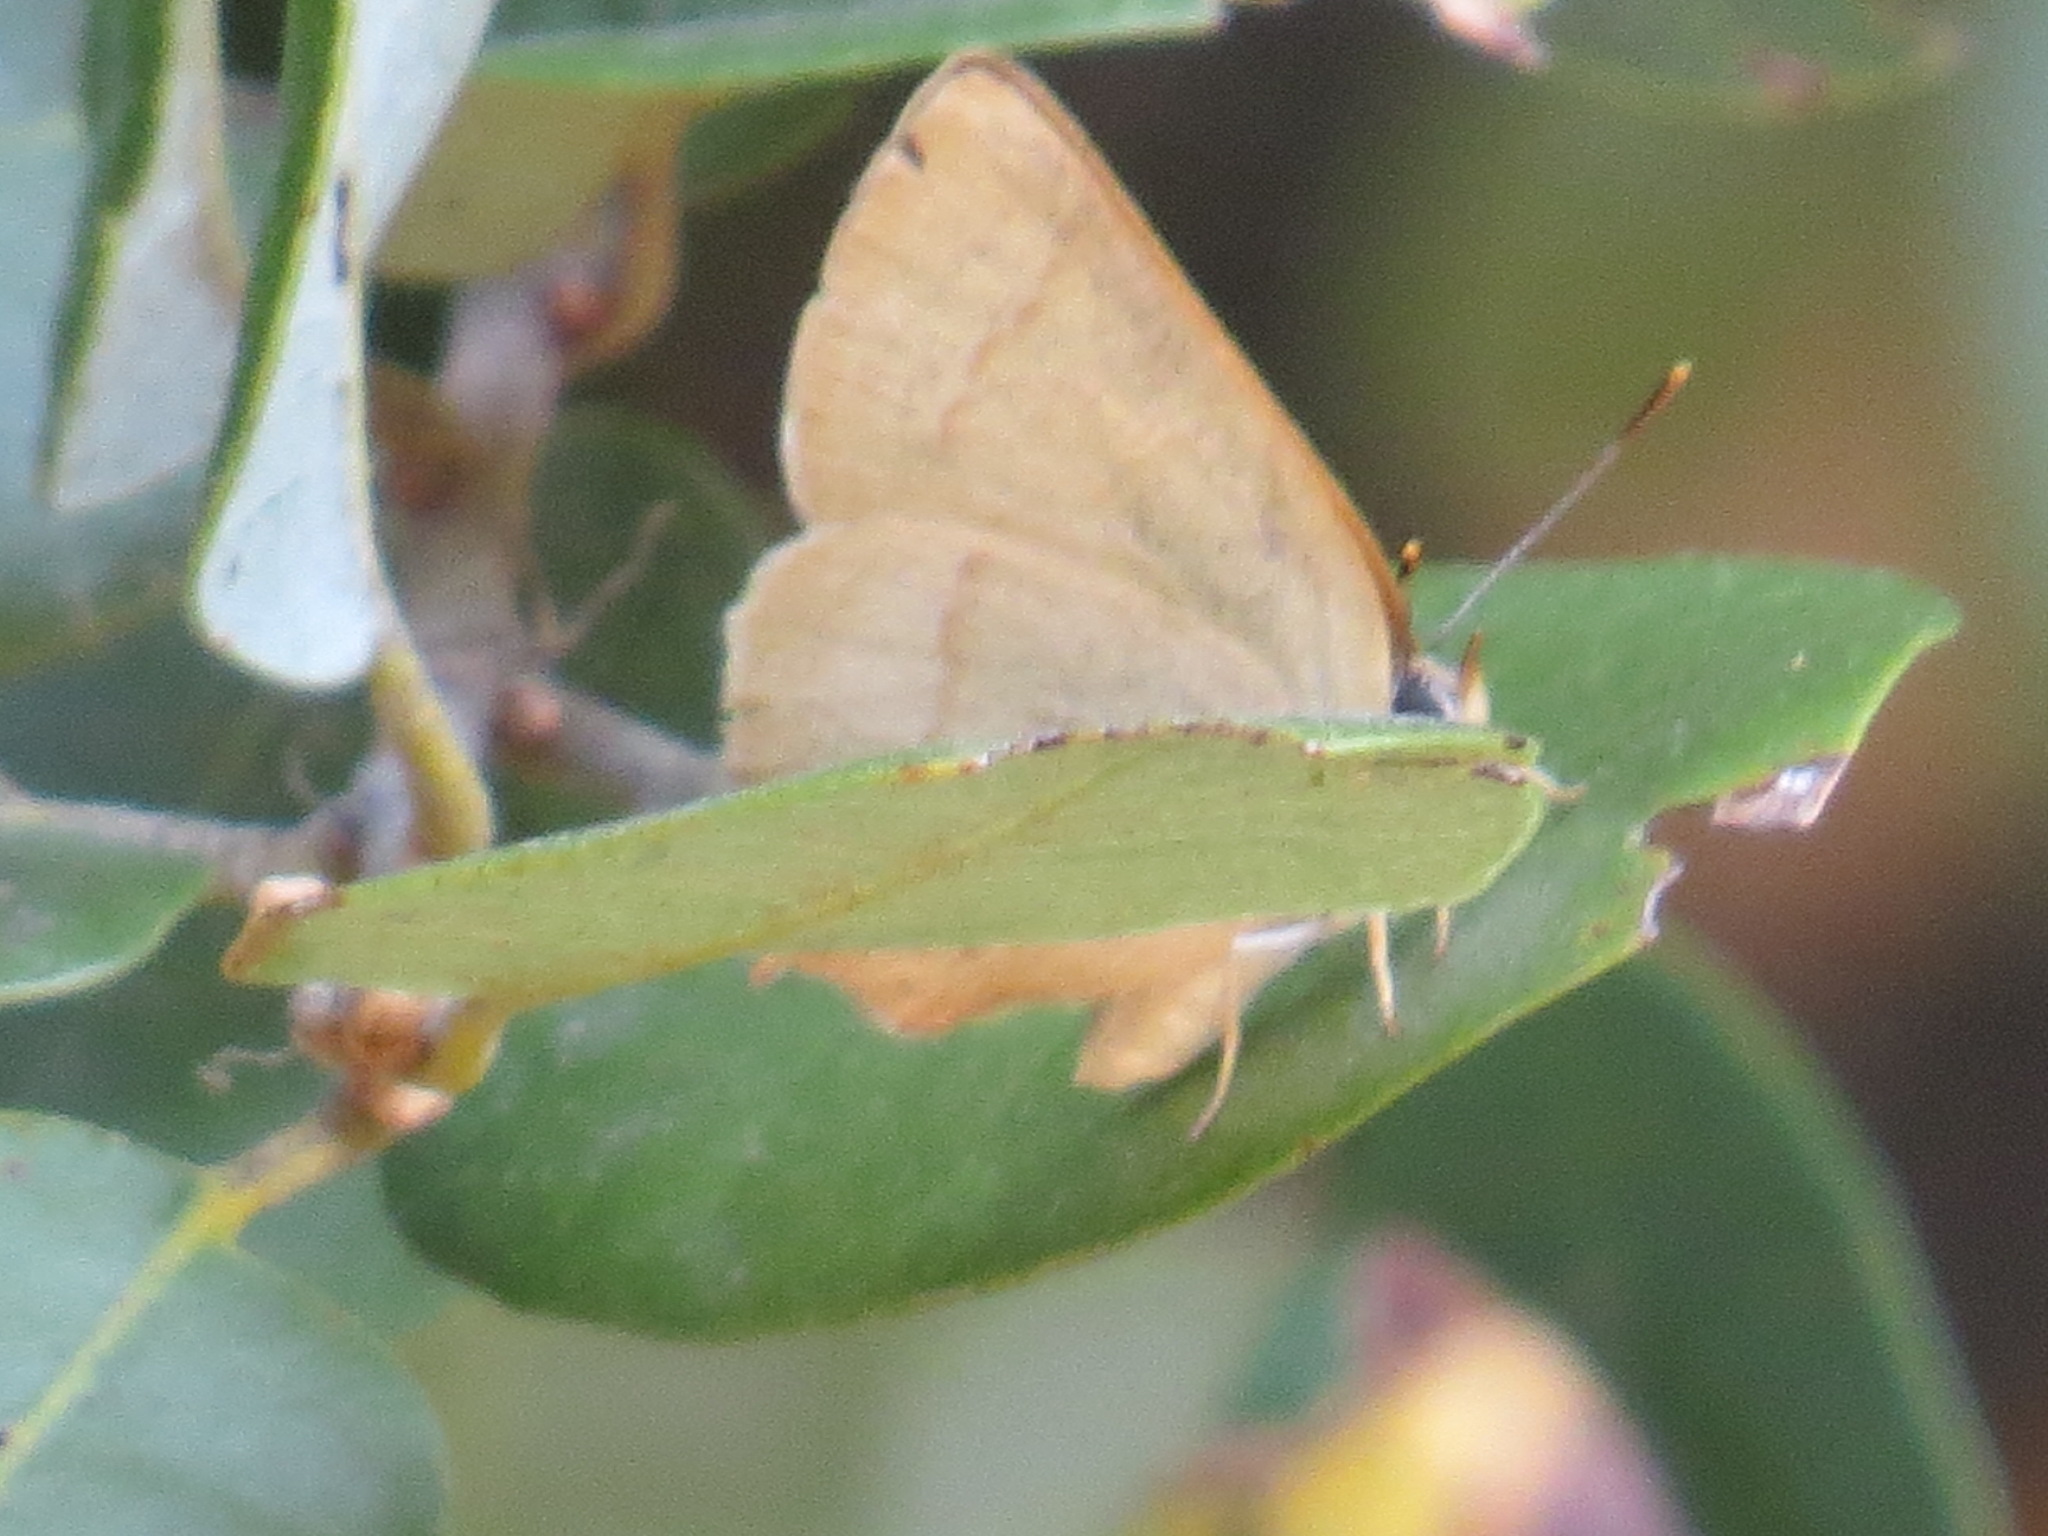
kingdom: Animalia
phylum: Arthropoda
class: Insecta
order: Lepidoptera
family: Lycaenidae
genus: Habrodais
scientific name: Habrodais grunus
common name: Golden hairstreak
